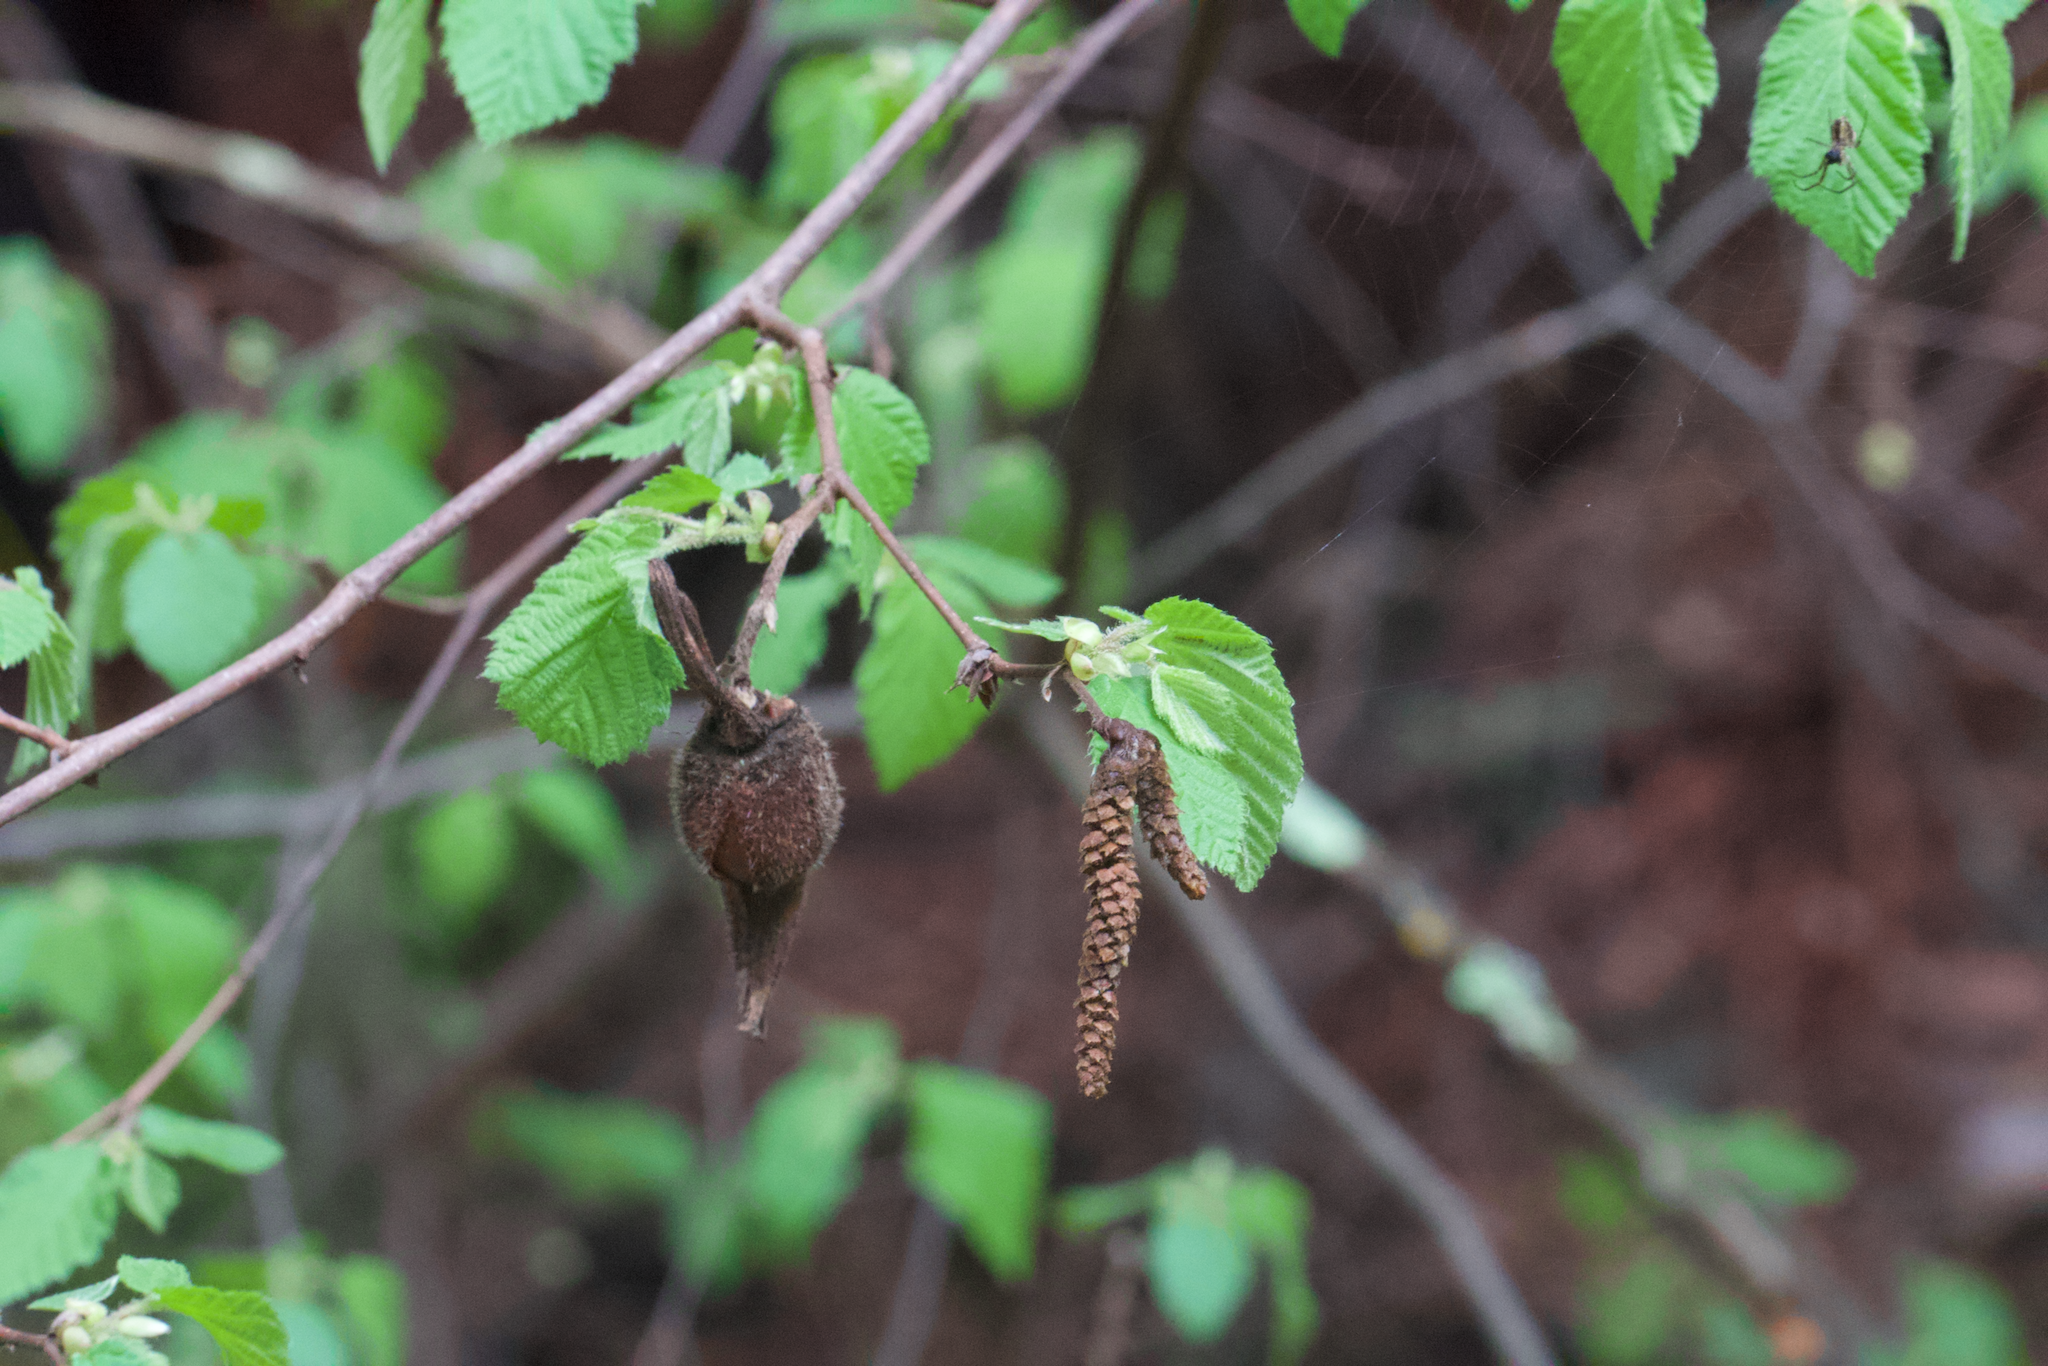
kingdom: Plantae
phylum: Tracheophyta
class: Magnoliopsida
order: Fagales
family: Betulaceae
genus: Corylus
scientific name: Corylus cornuta
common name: Beaked hazel
